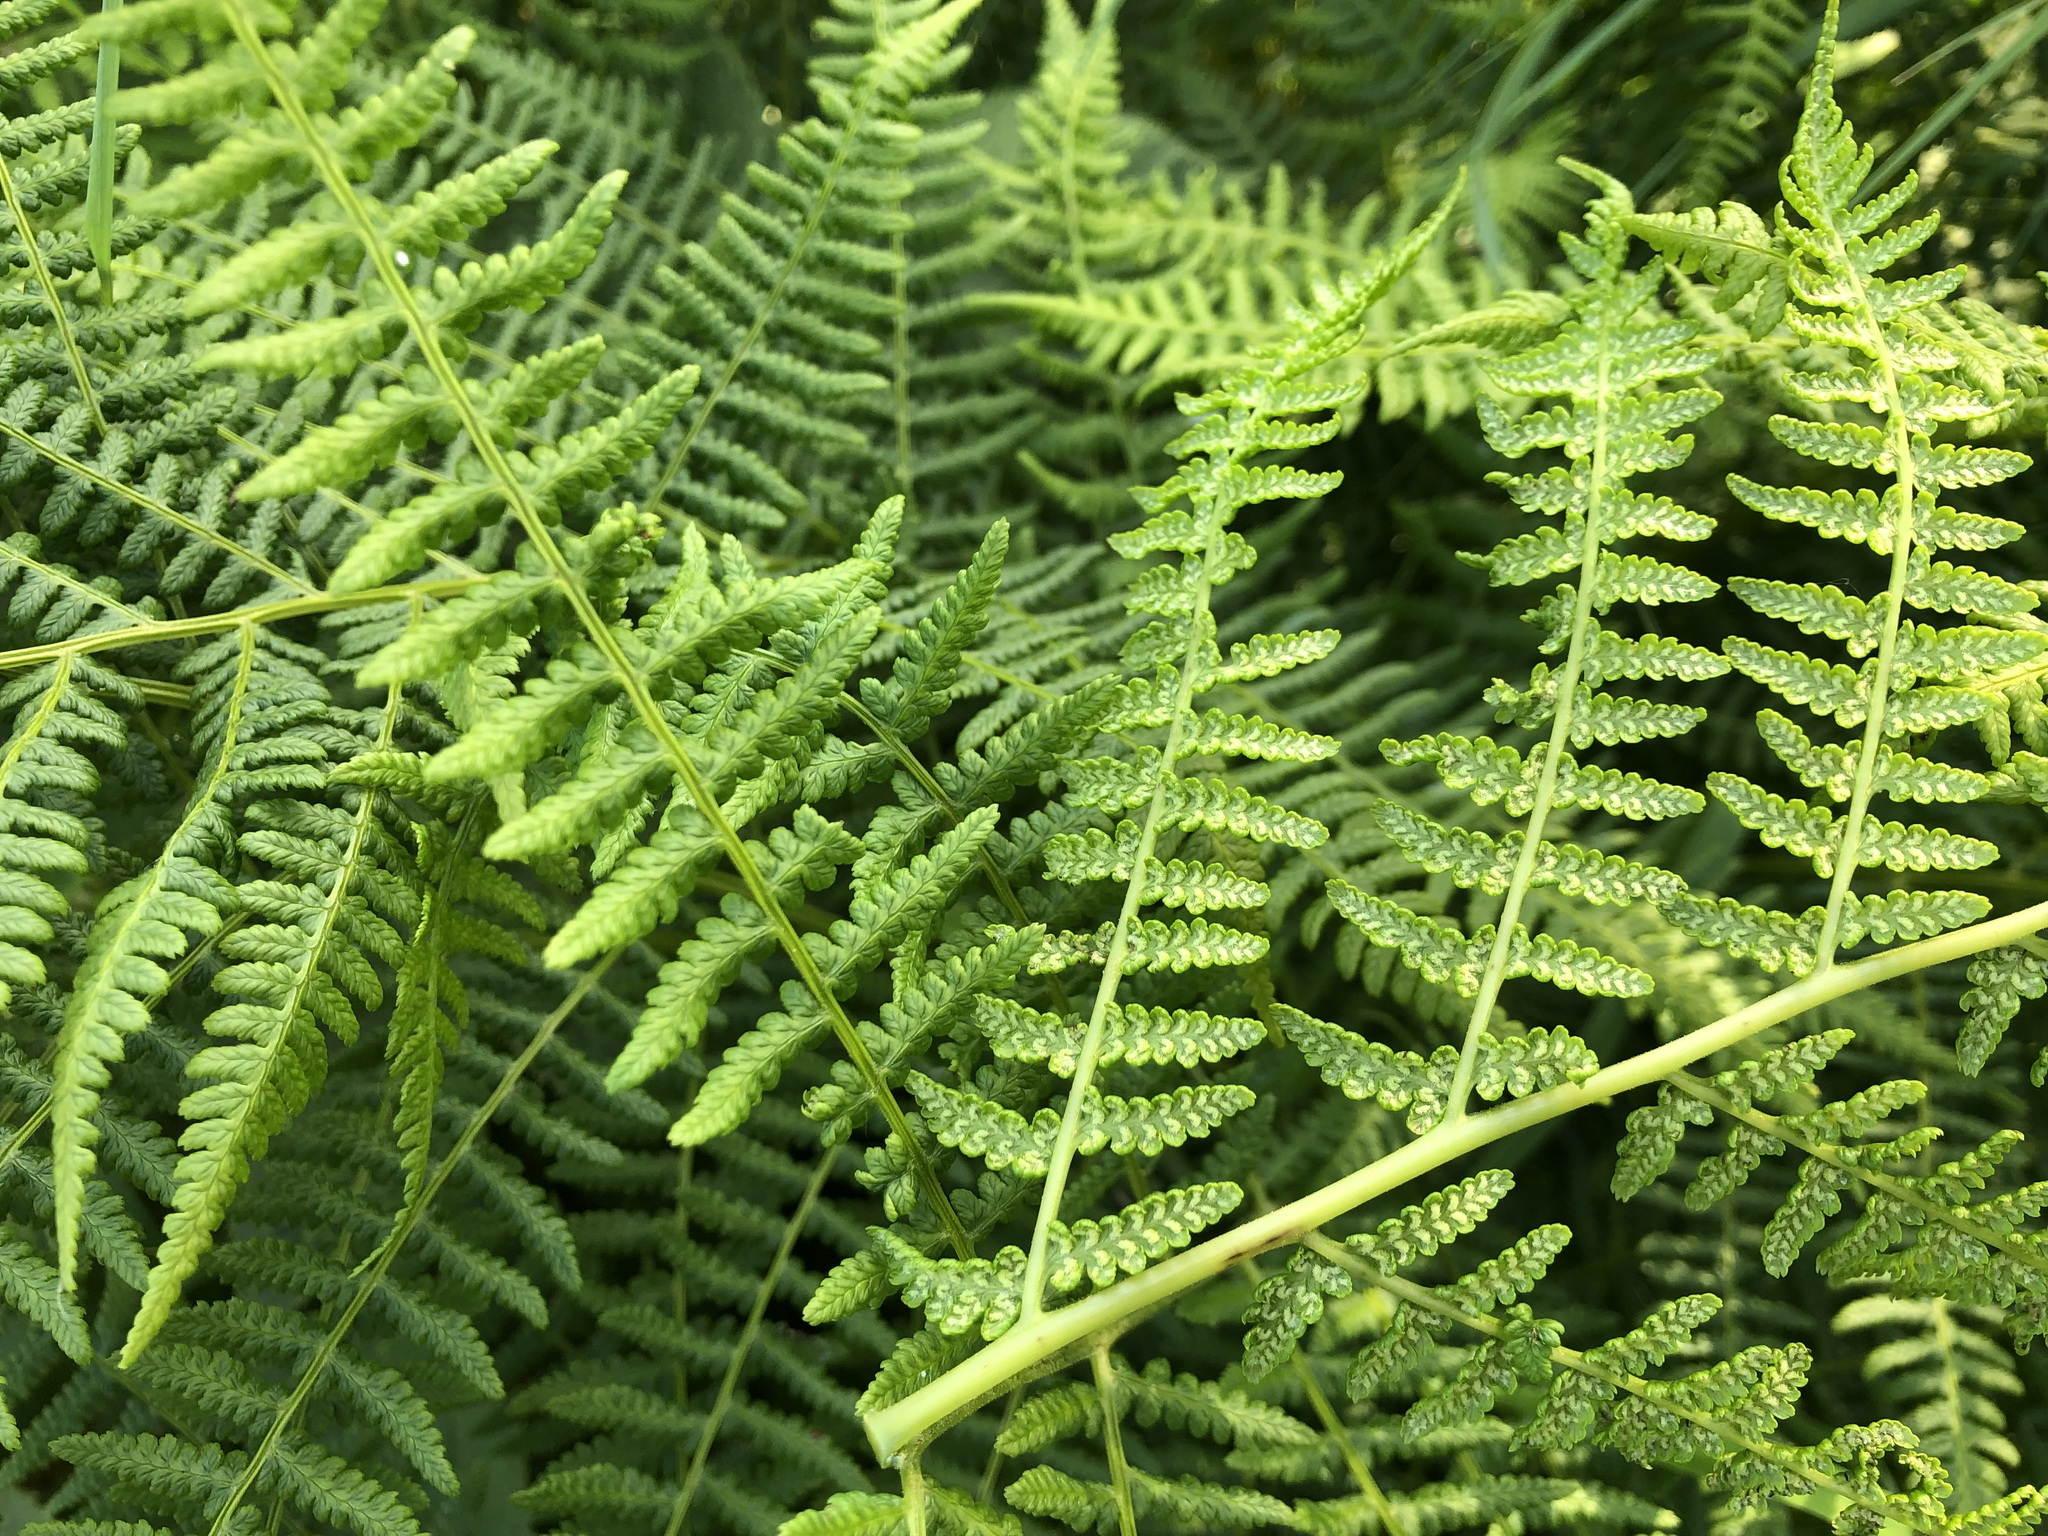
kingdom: Plantae
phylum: Tracheophyta
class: Polypodiopsida
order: Polypodiales
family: Athyriaceae
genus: Athyrium
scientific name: Athyrium filix-femina
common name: Lady fern
